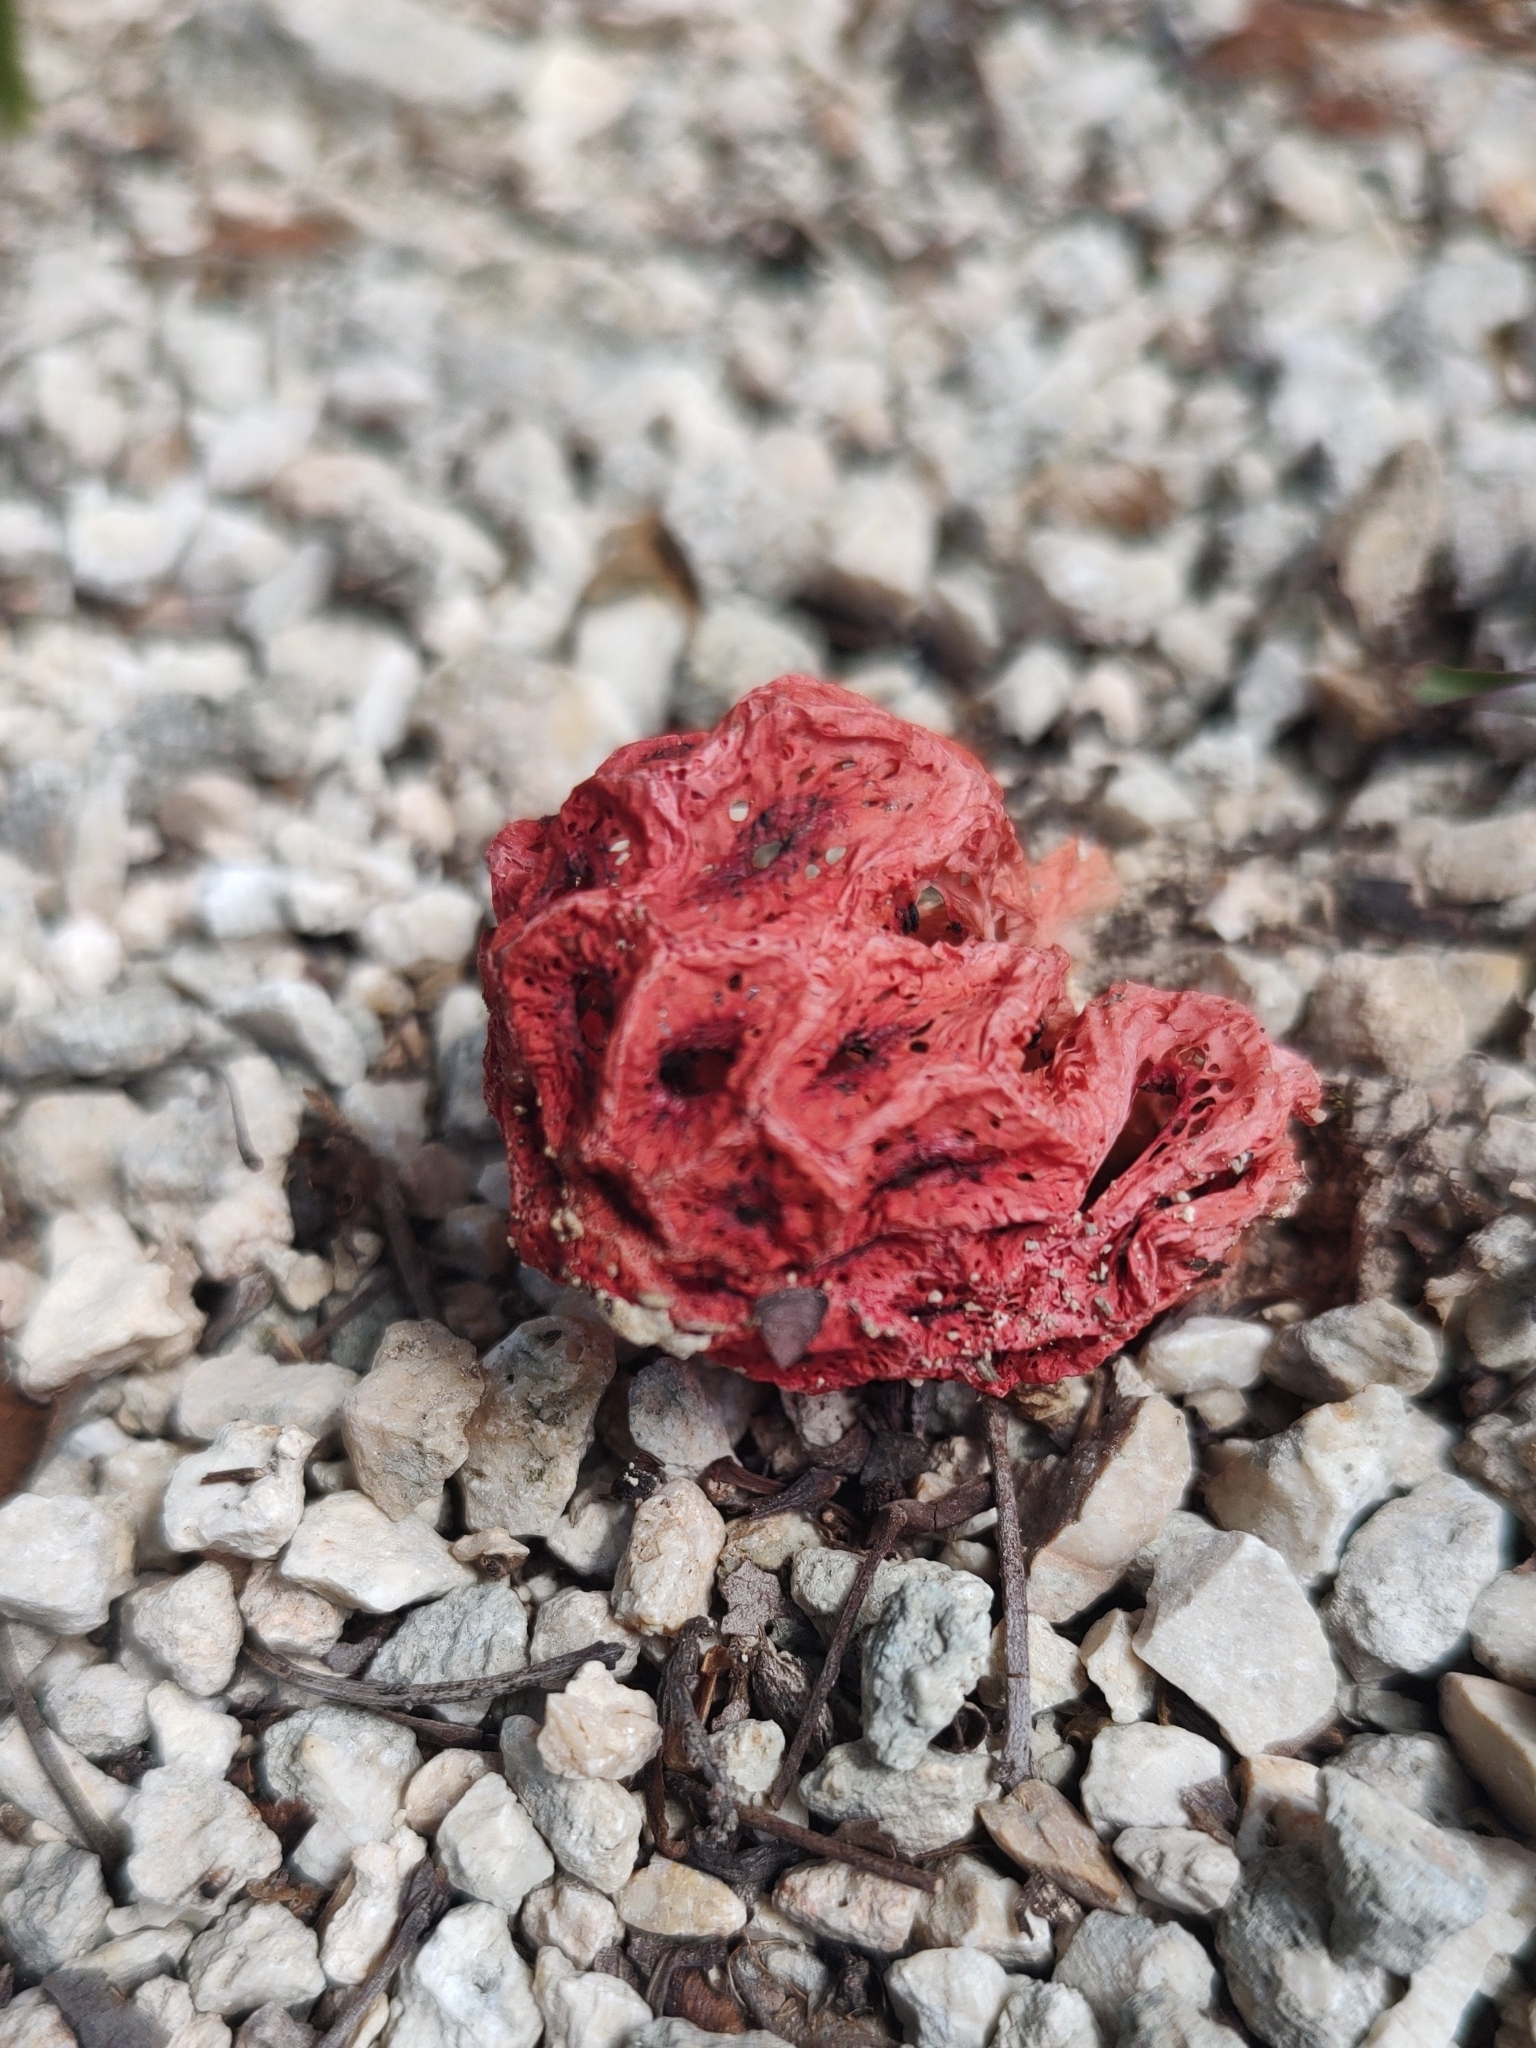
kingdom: Fungi
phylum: Basidiomycota
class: Agaricomycetes
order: Phallales
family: Phallaceae
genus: Clathrus
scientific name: Clathrus crispatus
